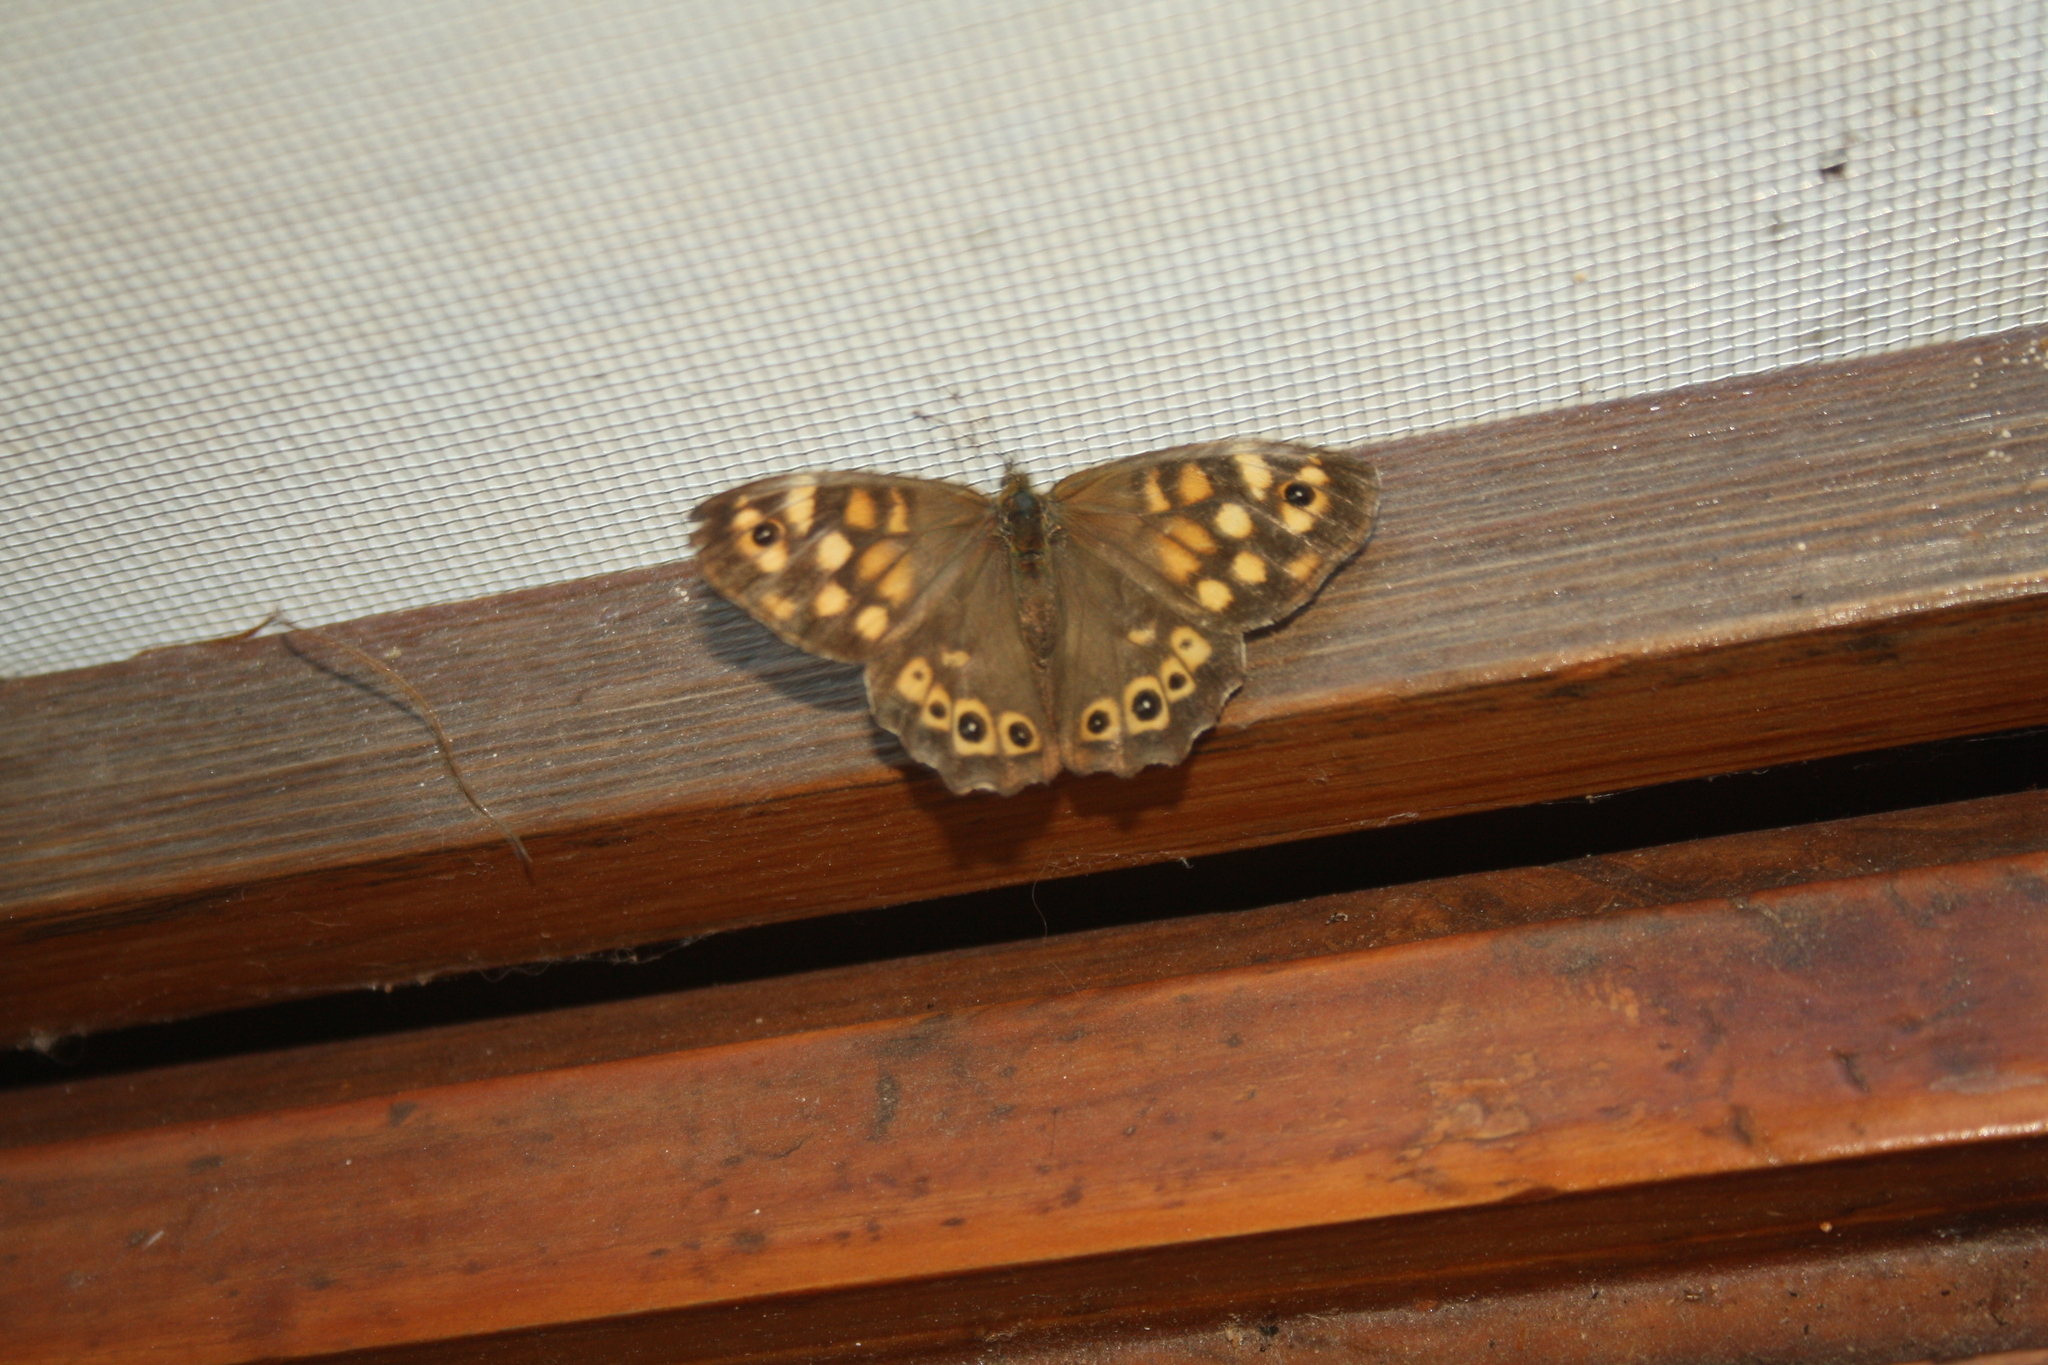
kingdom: Animalia
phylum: Arthropoda
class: Insecta
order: Lepidoptera
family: Nymphalidae
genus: Pararge
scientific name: Pararge aegeria
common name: Speckled wood
